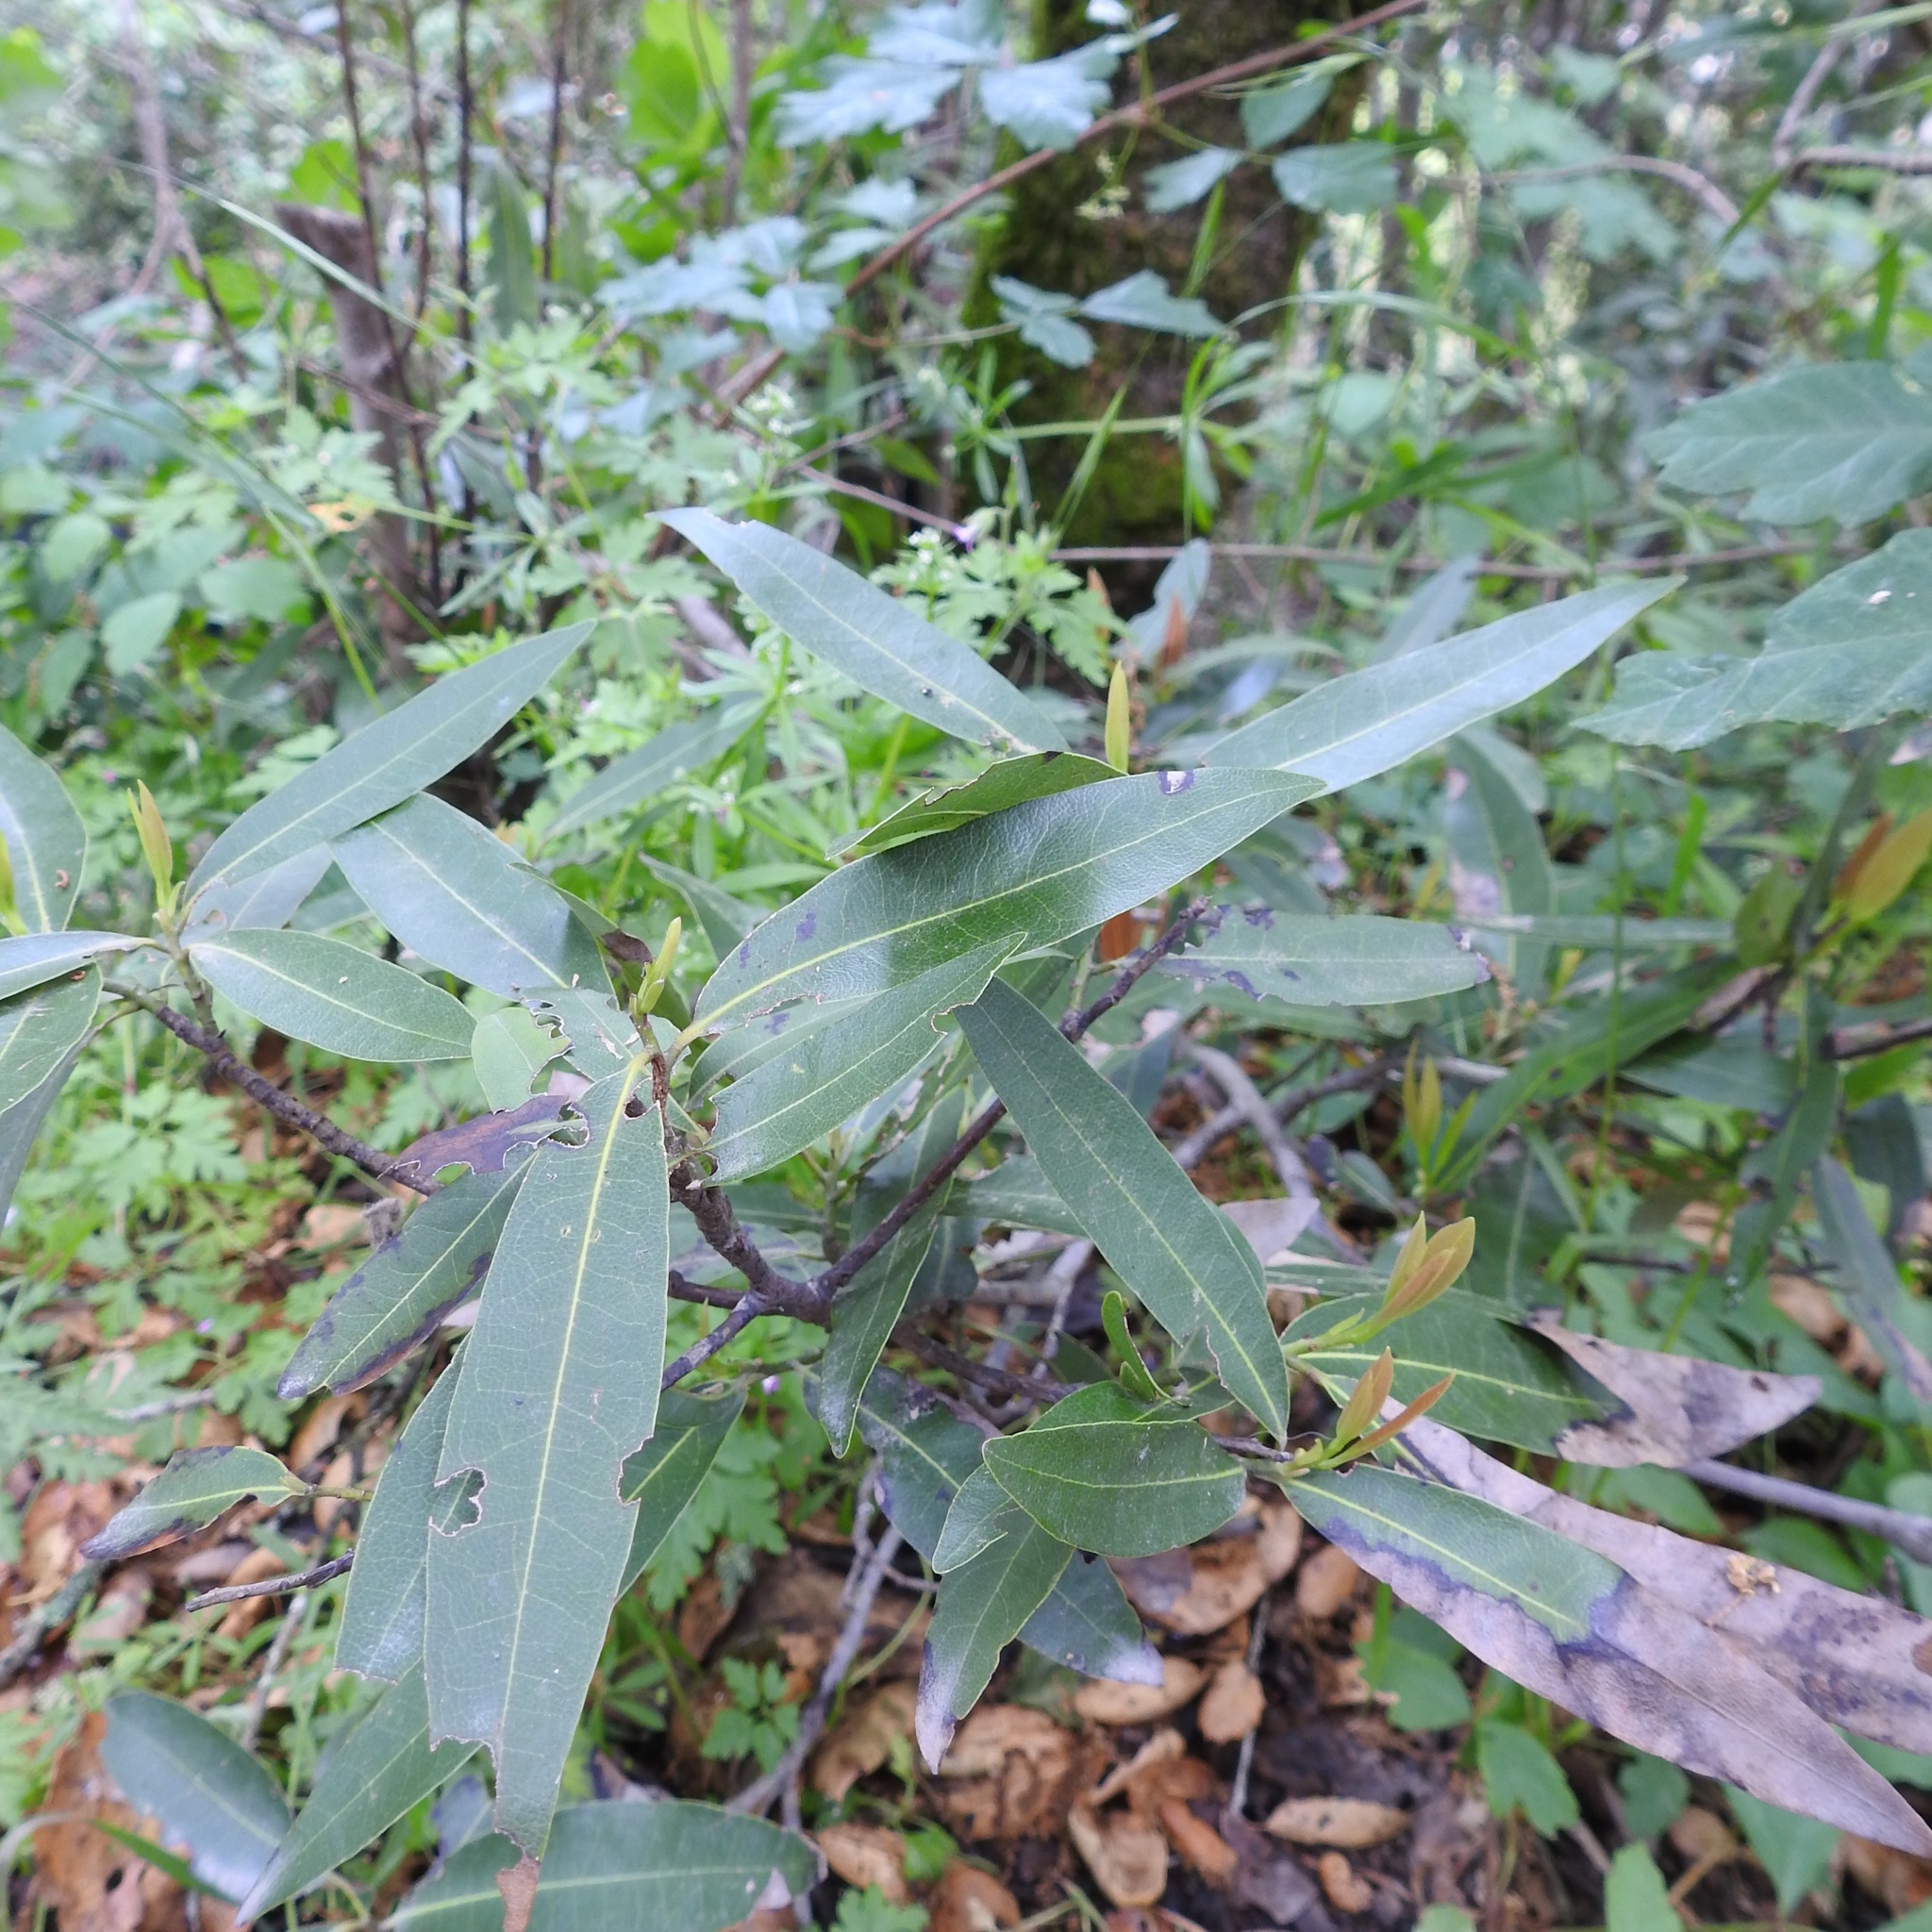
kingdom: Plantae
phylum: Tracheophyta
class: Magnoliopsida
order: Laurales
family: Lauraceae
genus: Umbellularia
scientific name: Umbellularia californica
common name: California bay
